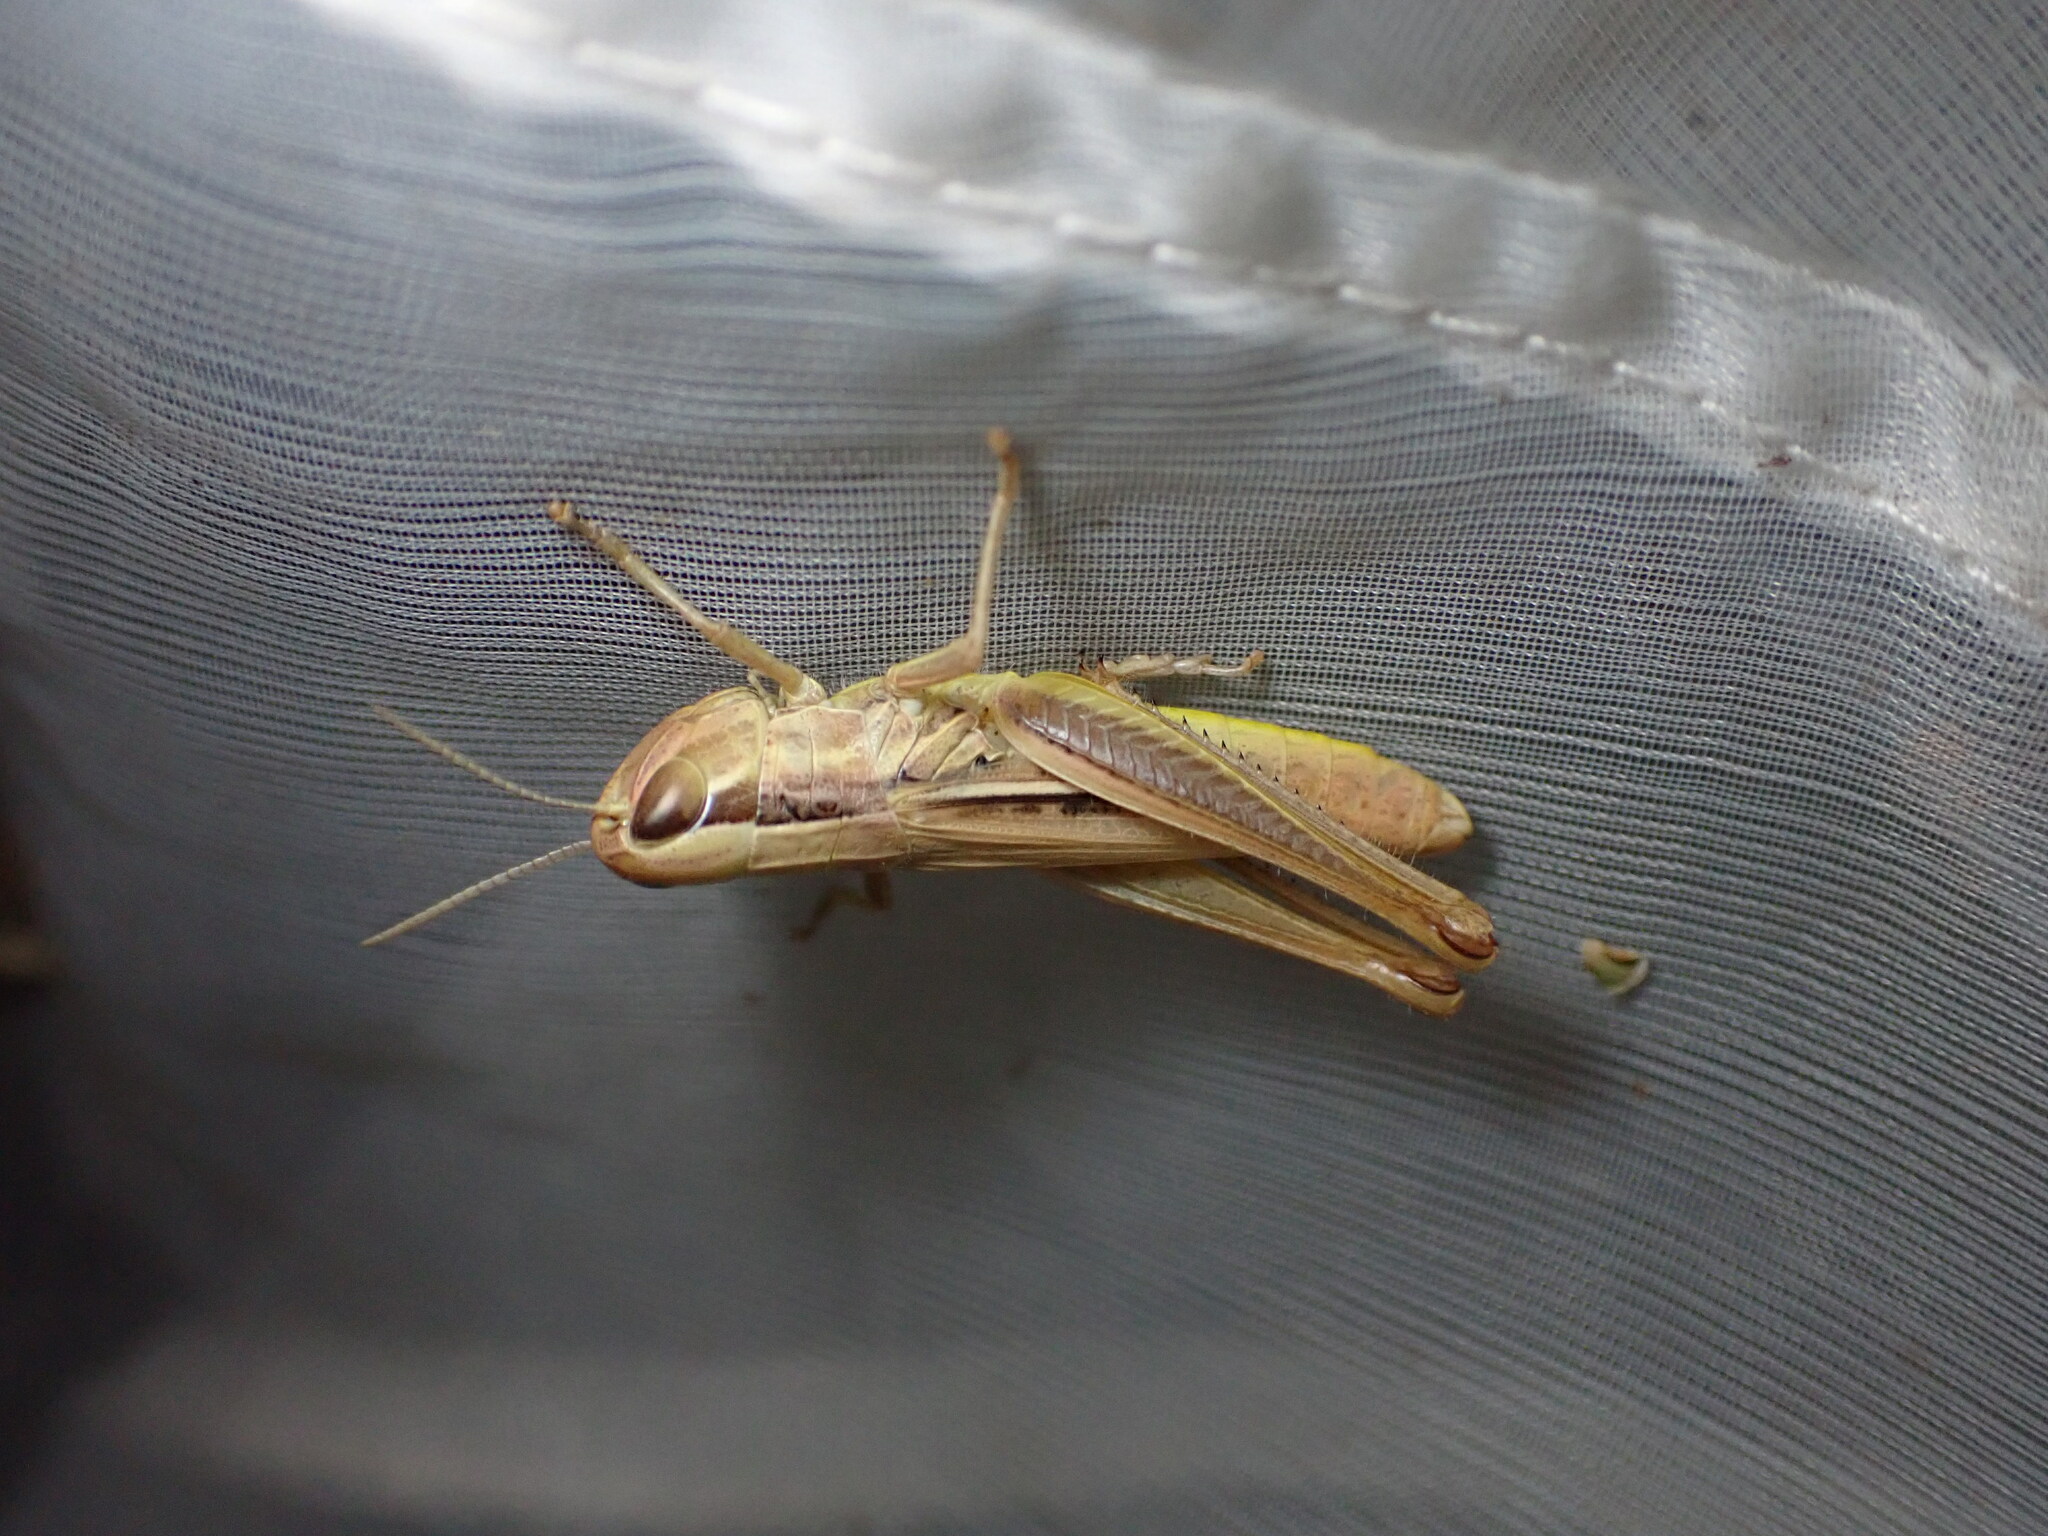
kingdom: Animalia
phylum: Arthropoda
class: Insecta
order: Orthoptera
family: Acrididae
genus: Euchorthippus
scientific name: Euchorthippus declivus
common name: Common straw grasshopper
